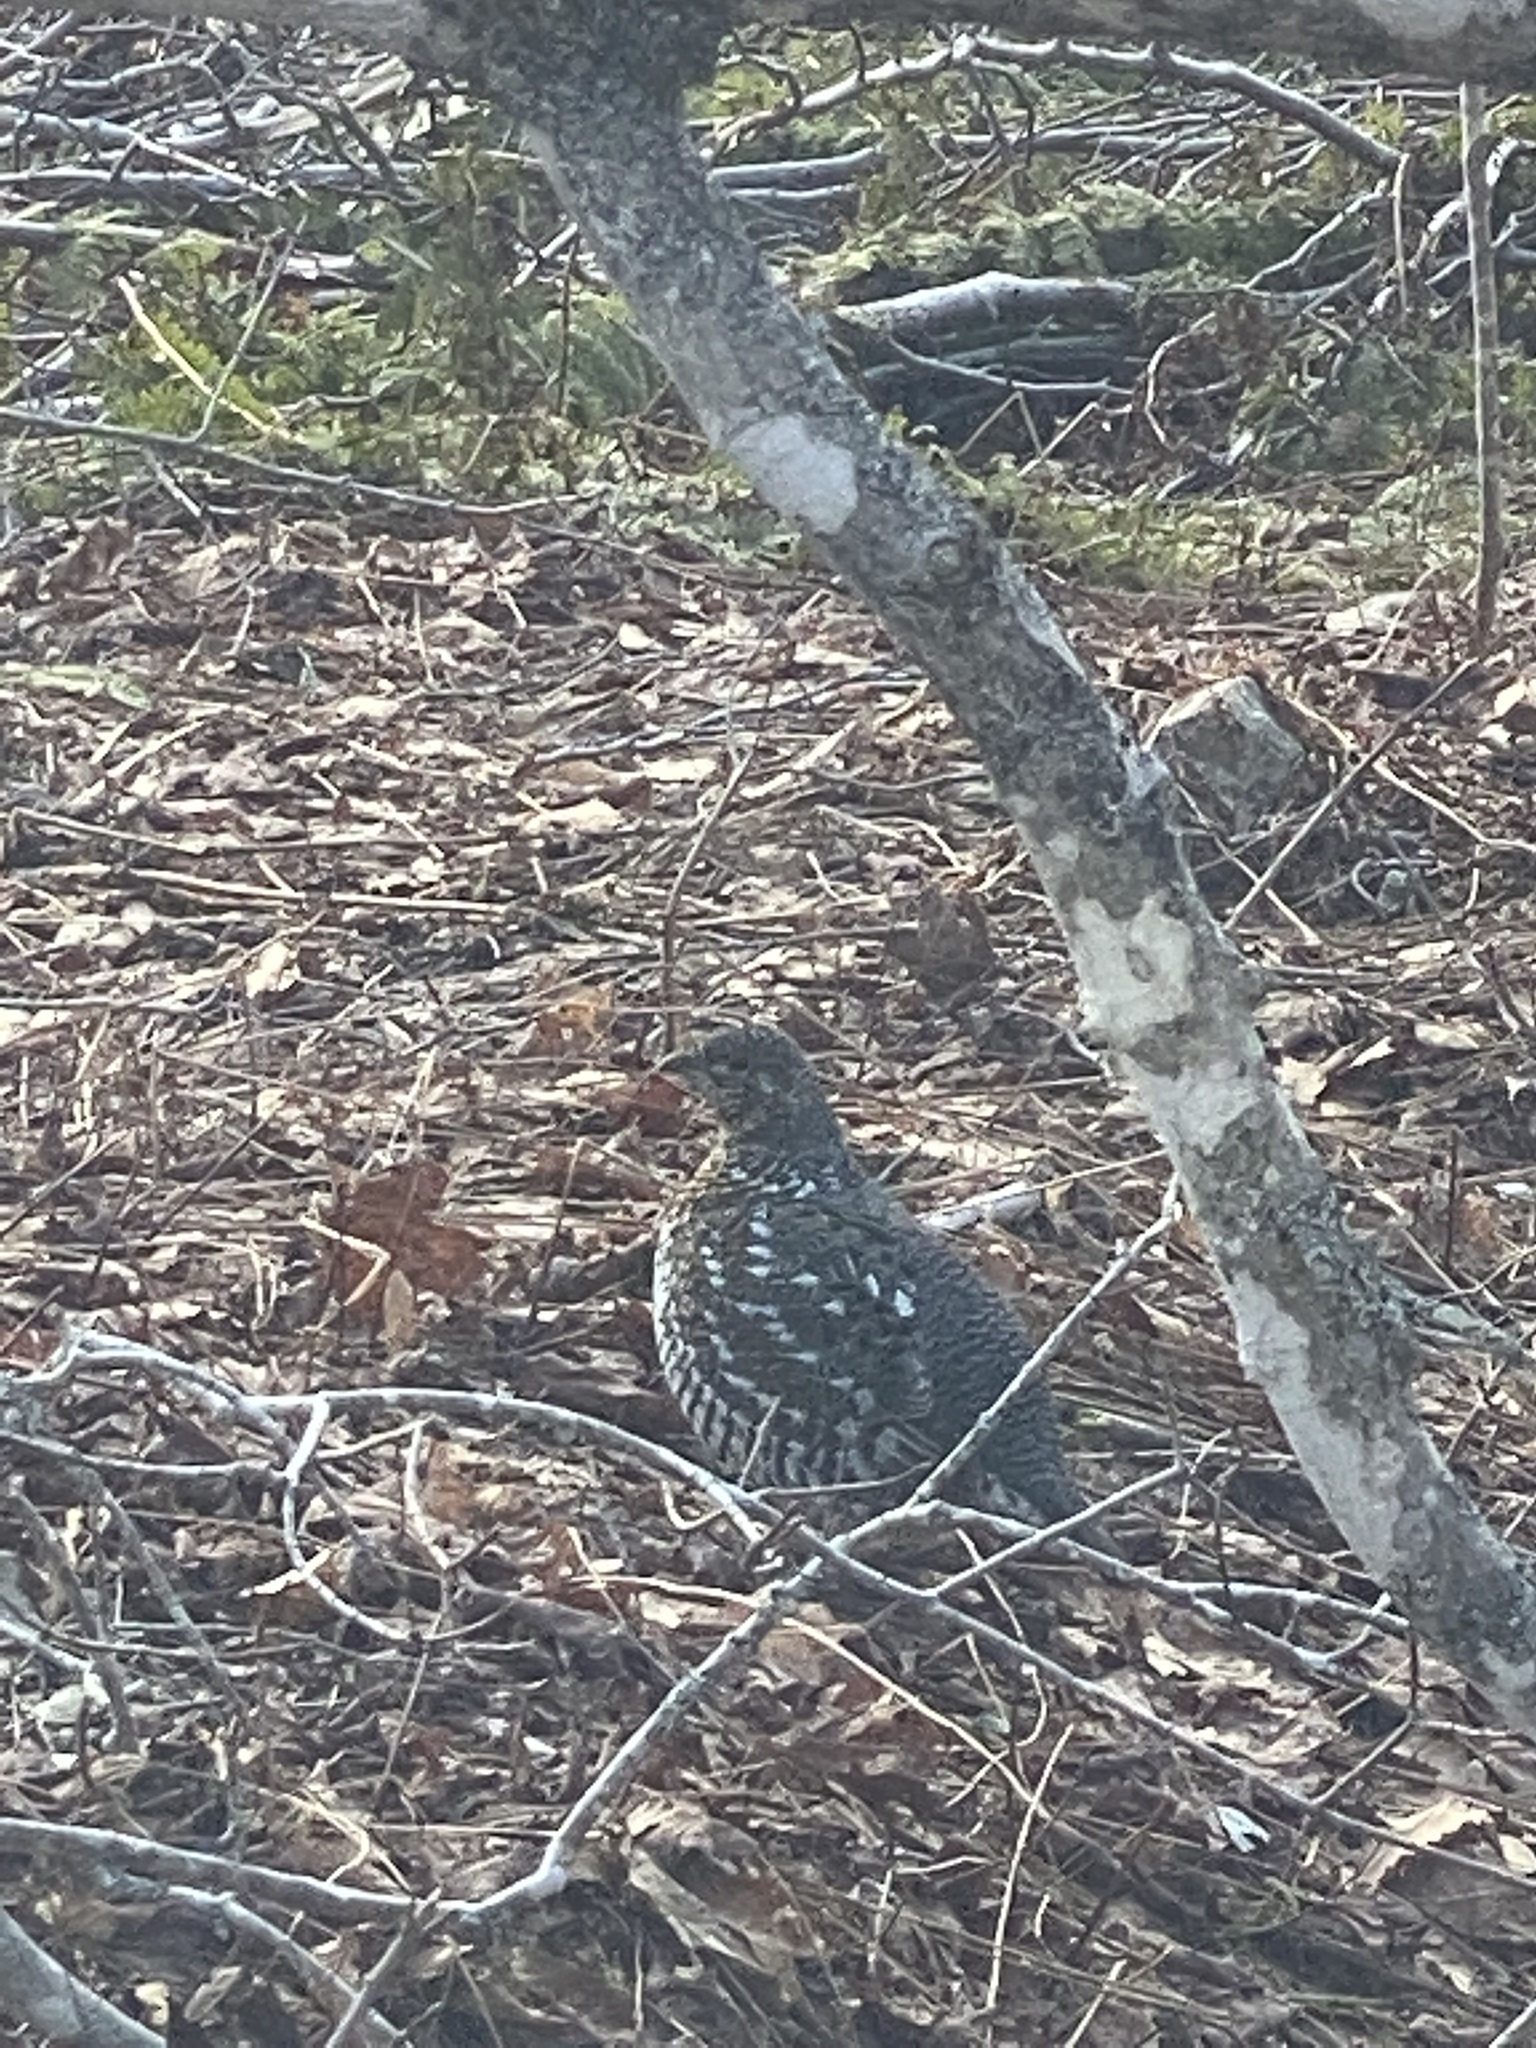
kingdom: Animalia
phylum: Chordata
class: Aves
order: Galliformes
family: Phasianidae
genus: Canachites
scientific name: Canachites canadensis
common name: Spruce grouse
